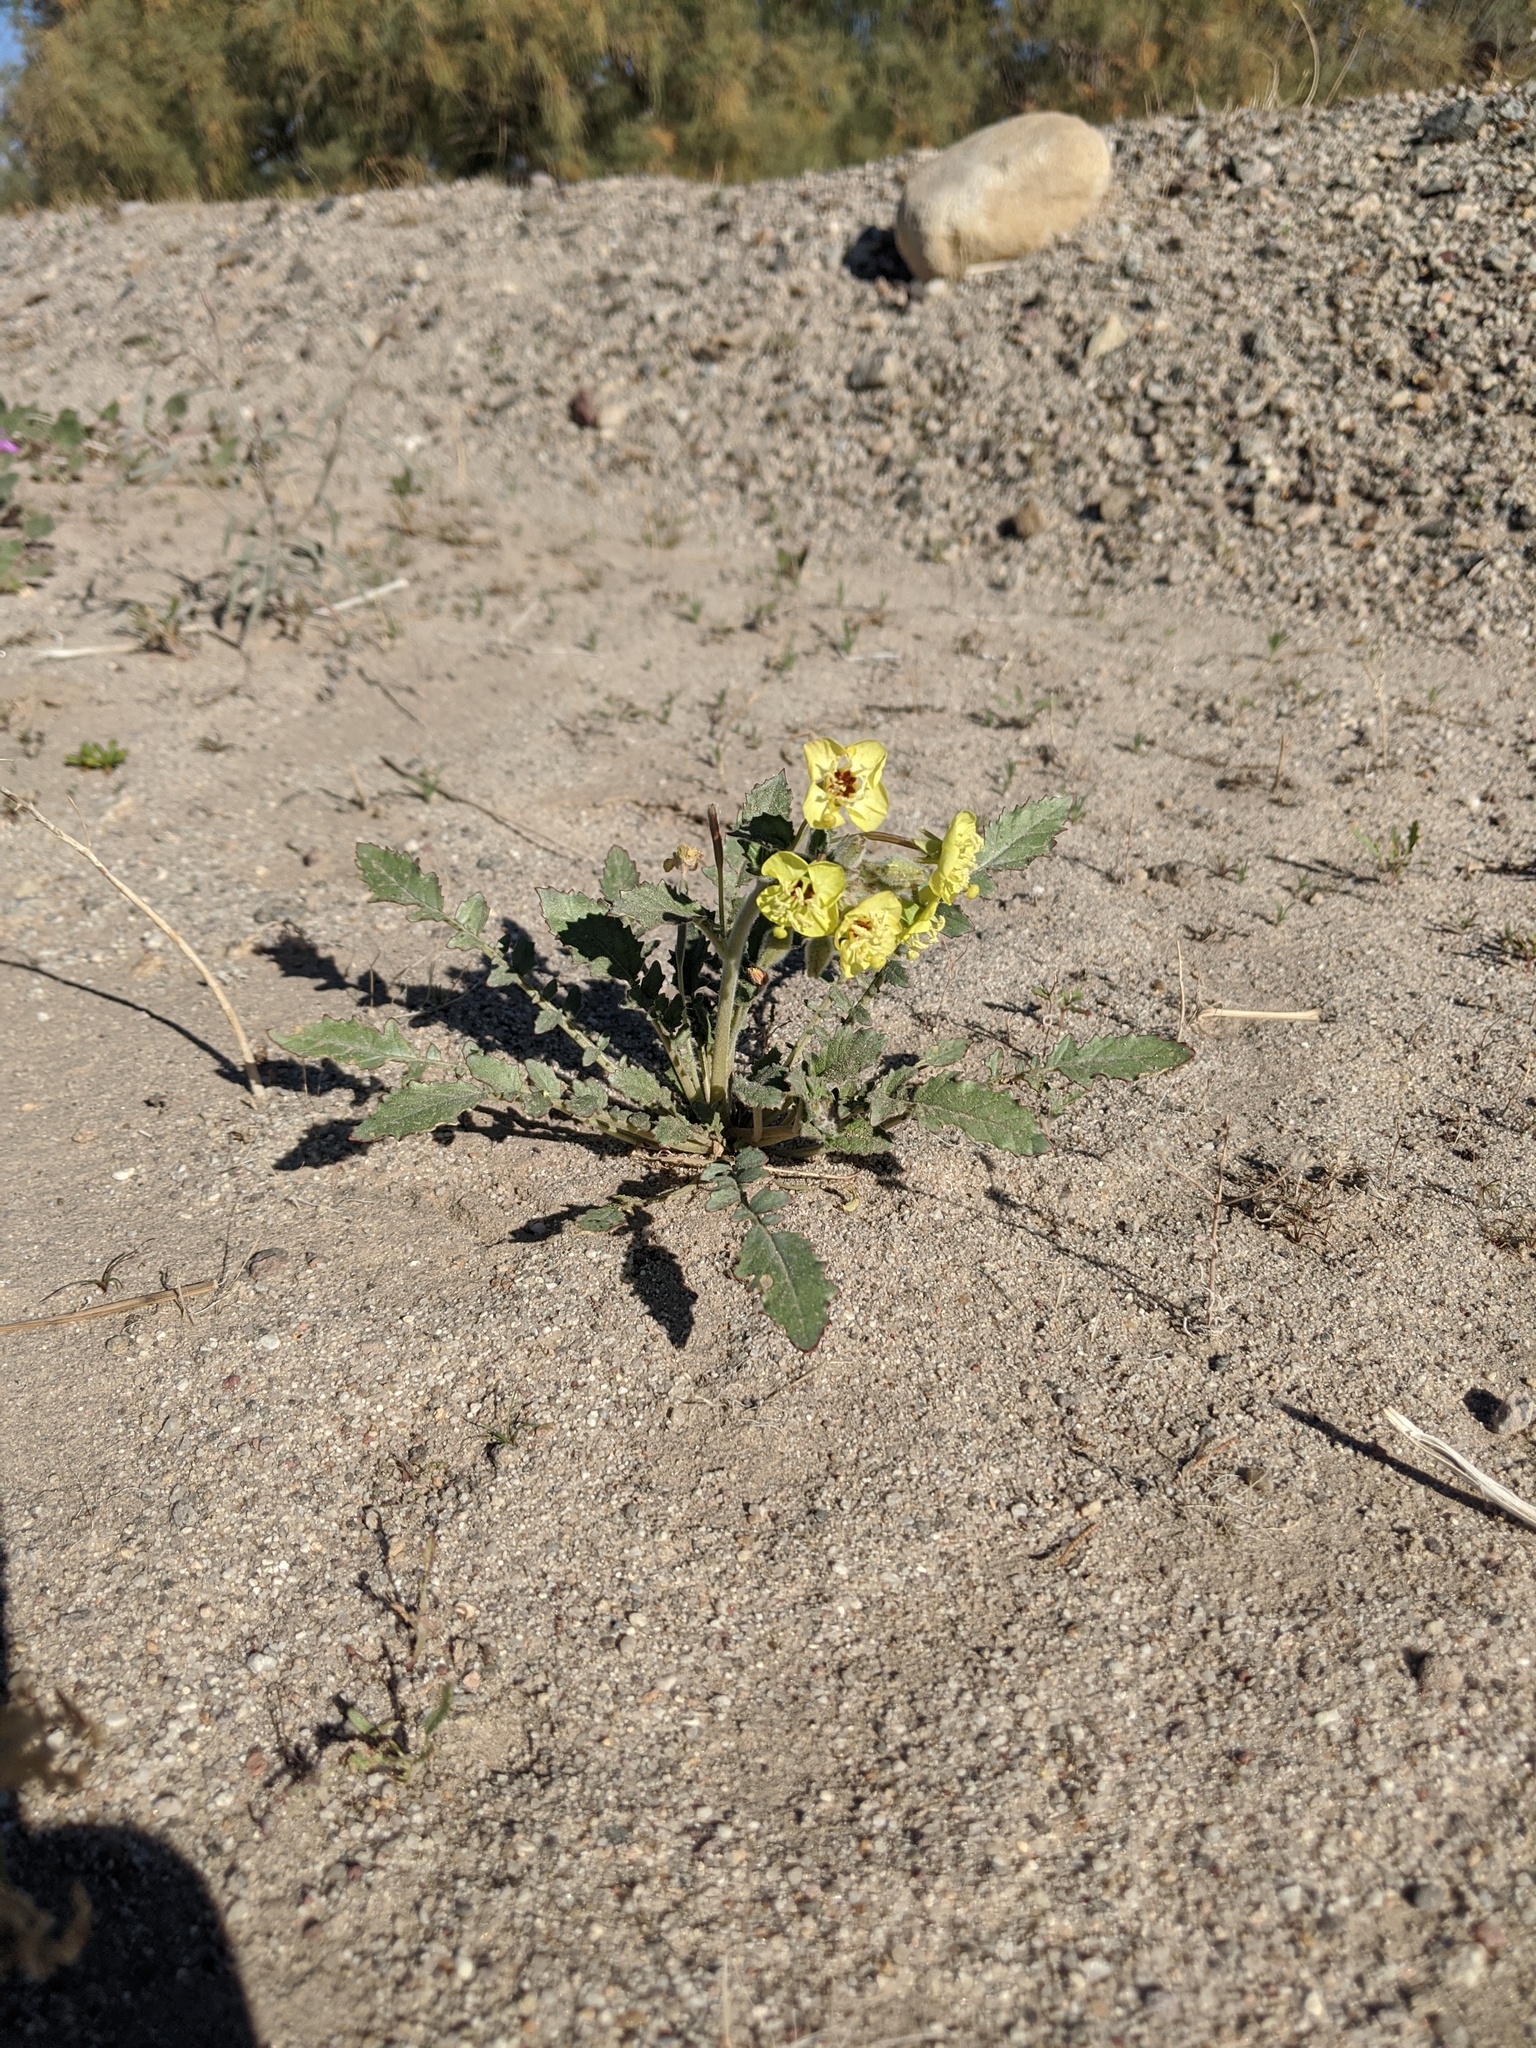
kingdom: Plantae
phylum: Tracheophyta
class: Magnoliopsida
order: Myrtales
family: Onagraceae
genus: Chylismia
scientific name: Chylismia claviformis
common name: Browneyes
